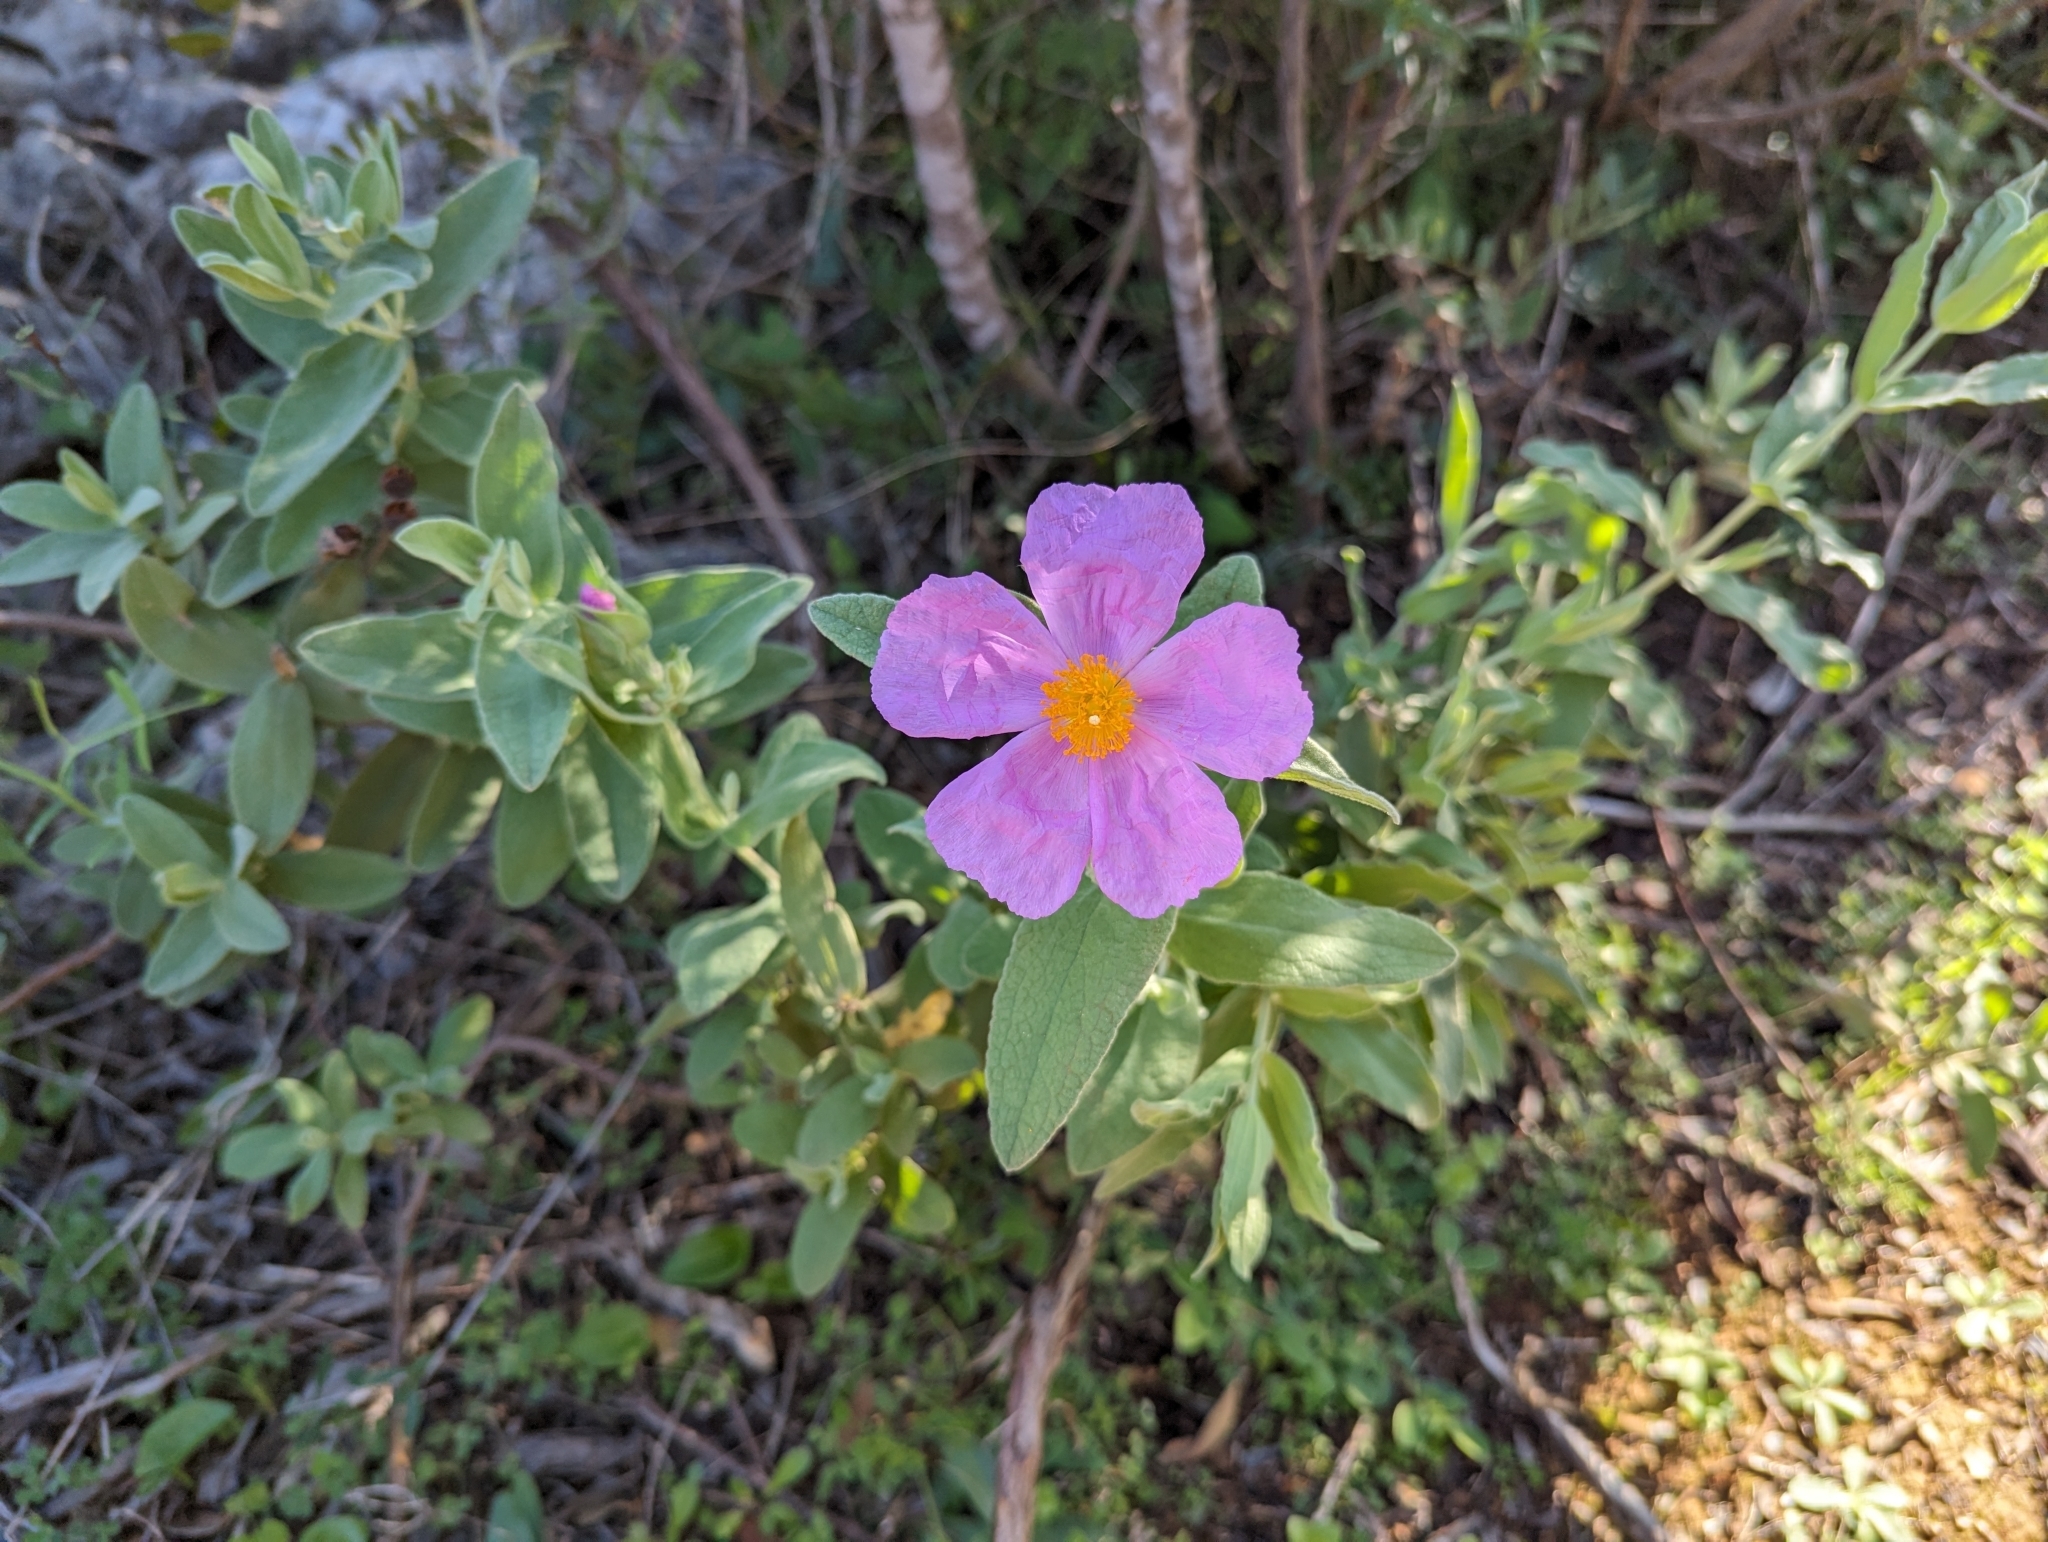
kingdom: Plantae
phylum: Tracheophyta
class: Magnoliopsida
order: Malvales
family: Cistaceae
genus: Cistus
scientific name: Cistus albidus
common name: White-leaf rock-rose
